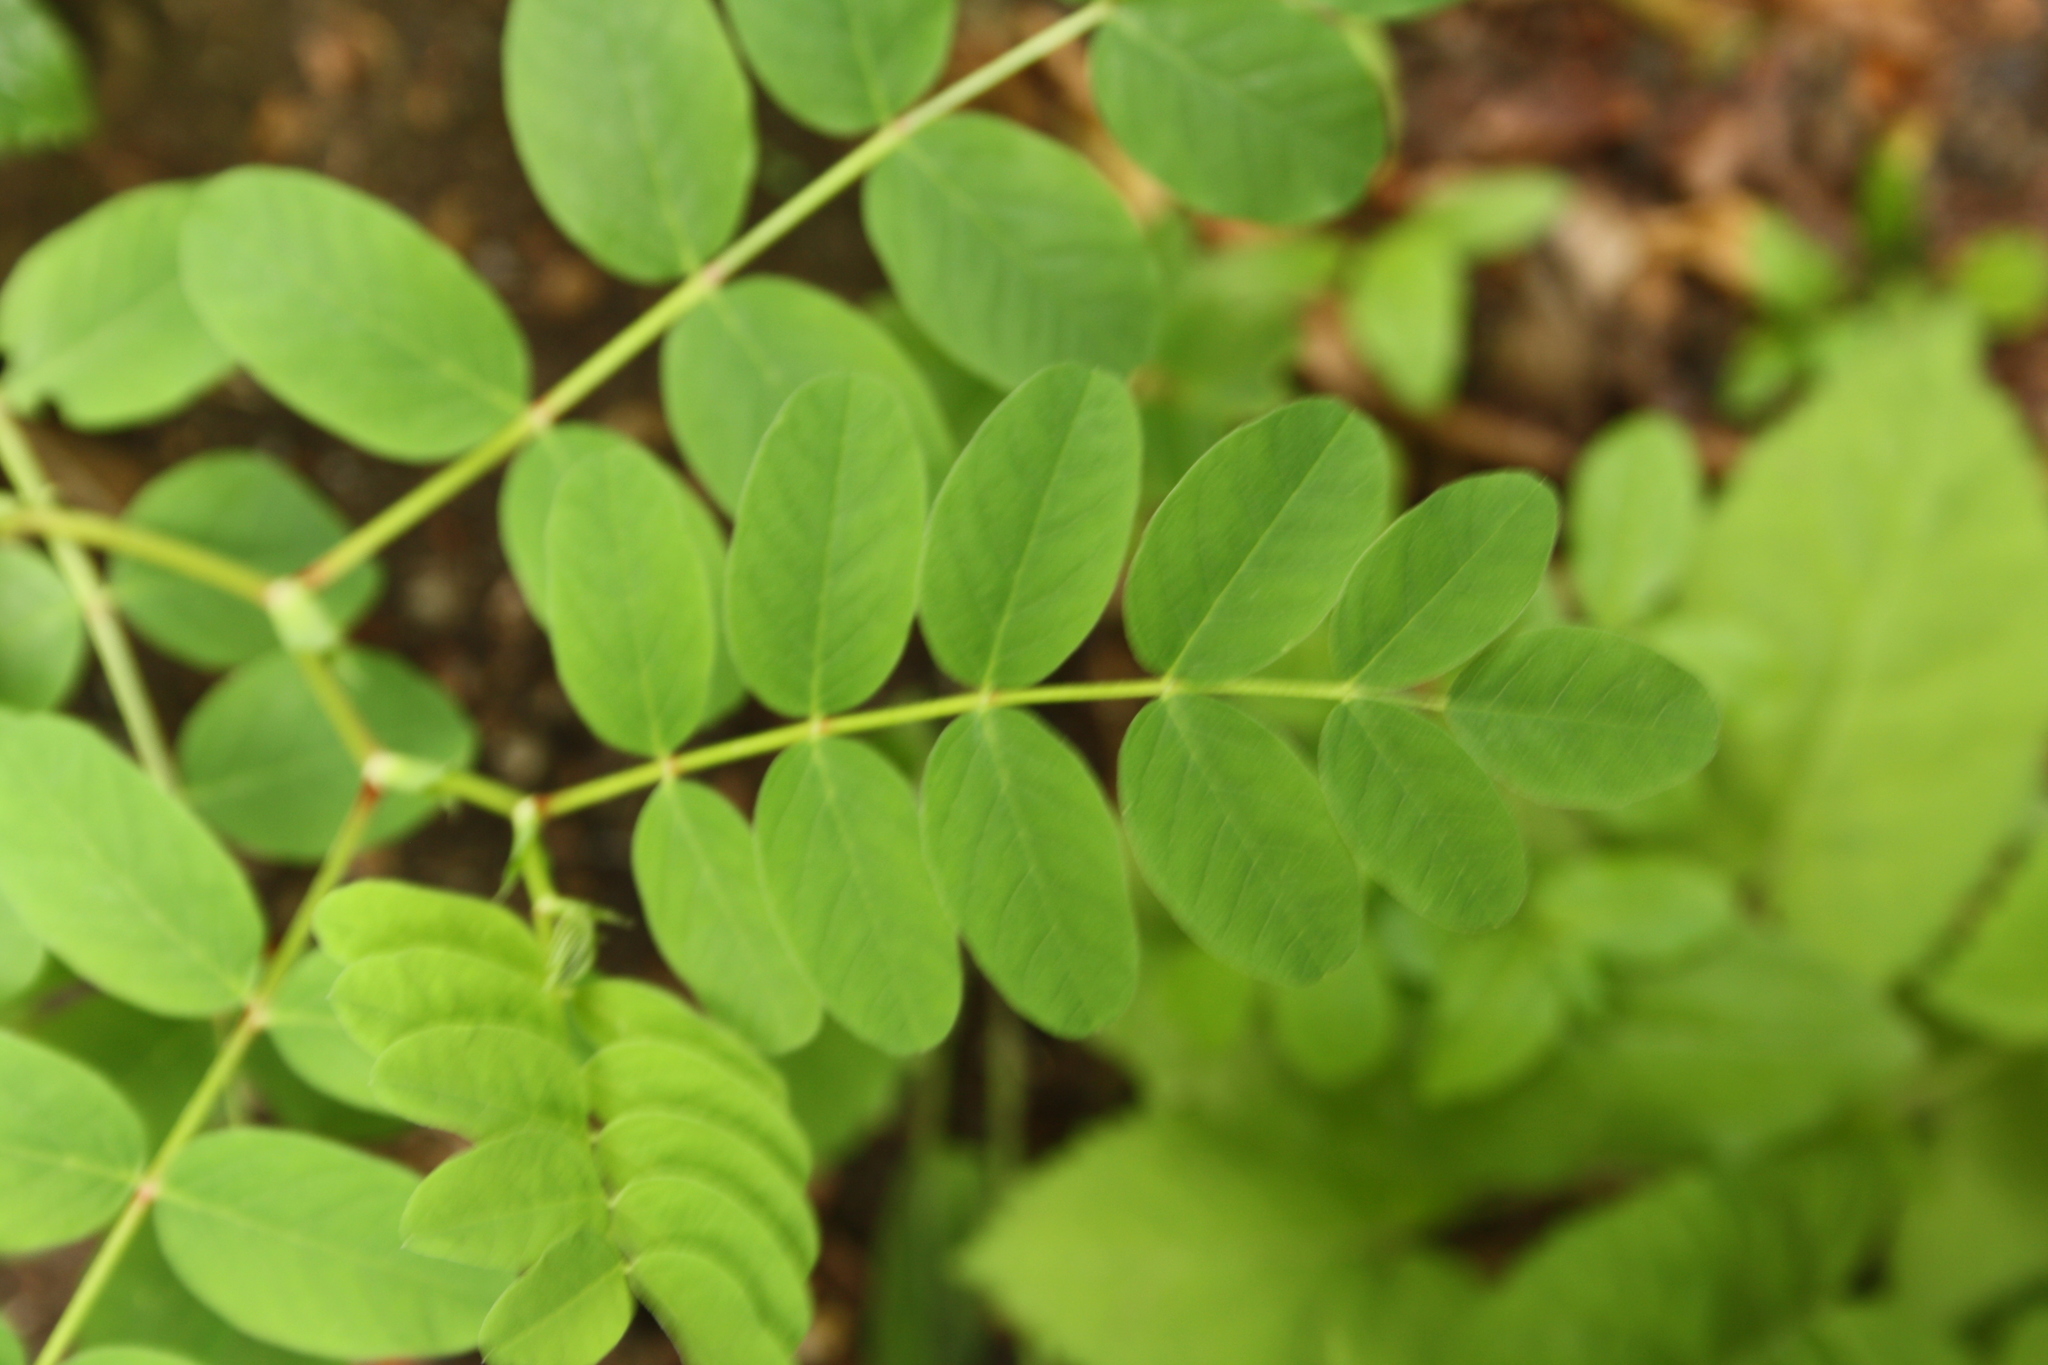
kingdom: Plantae
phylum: Tracheophyta
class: Magnoliopsida
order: Fabales
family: Fabaceae
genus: Astragalus
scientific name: Astragalus glycyphyllos
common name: Wild liquorice
